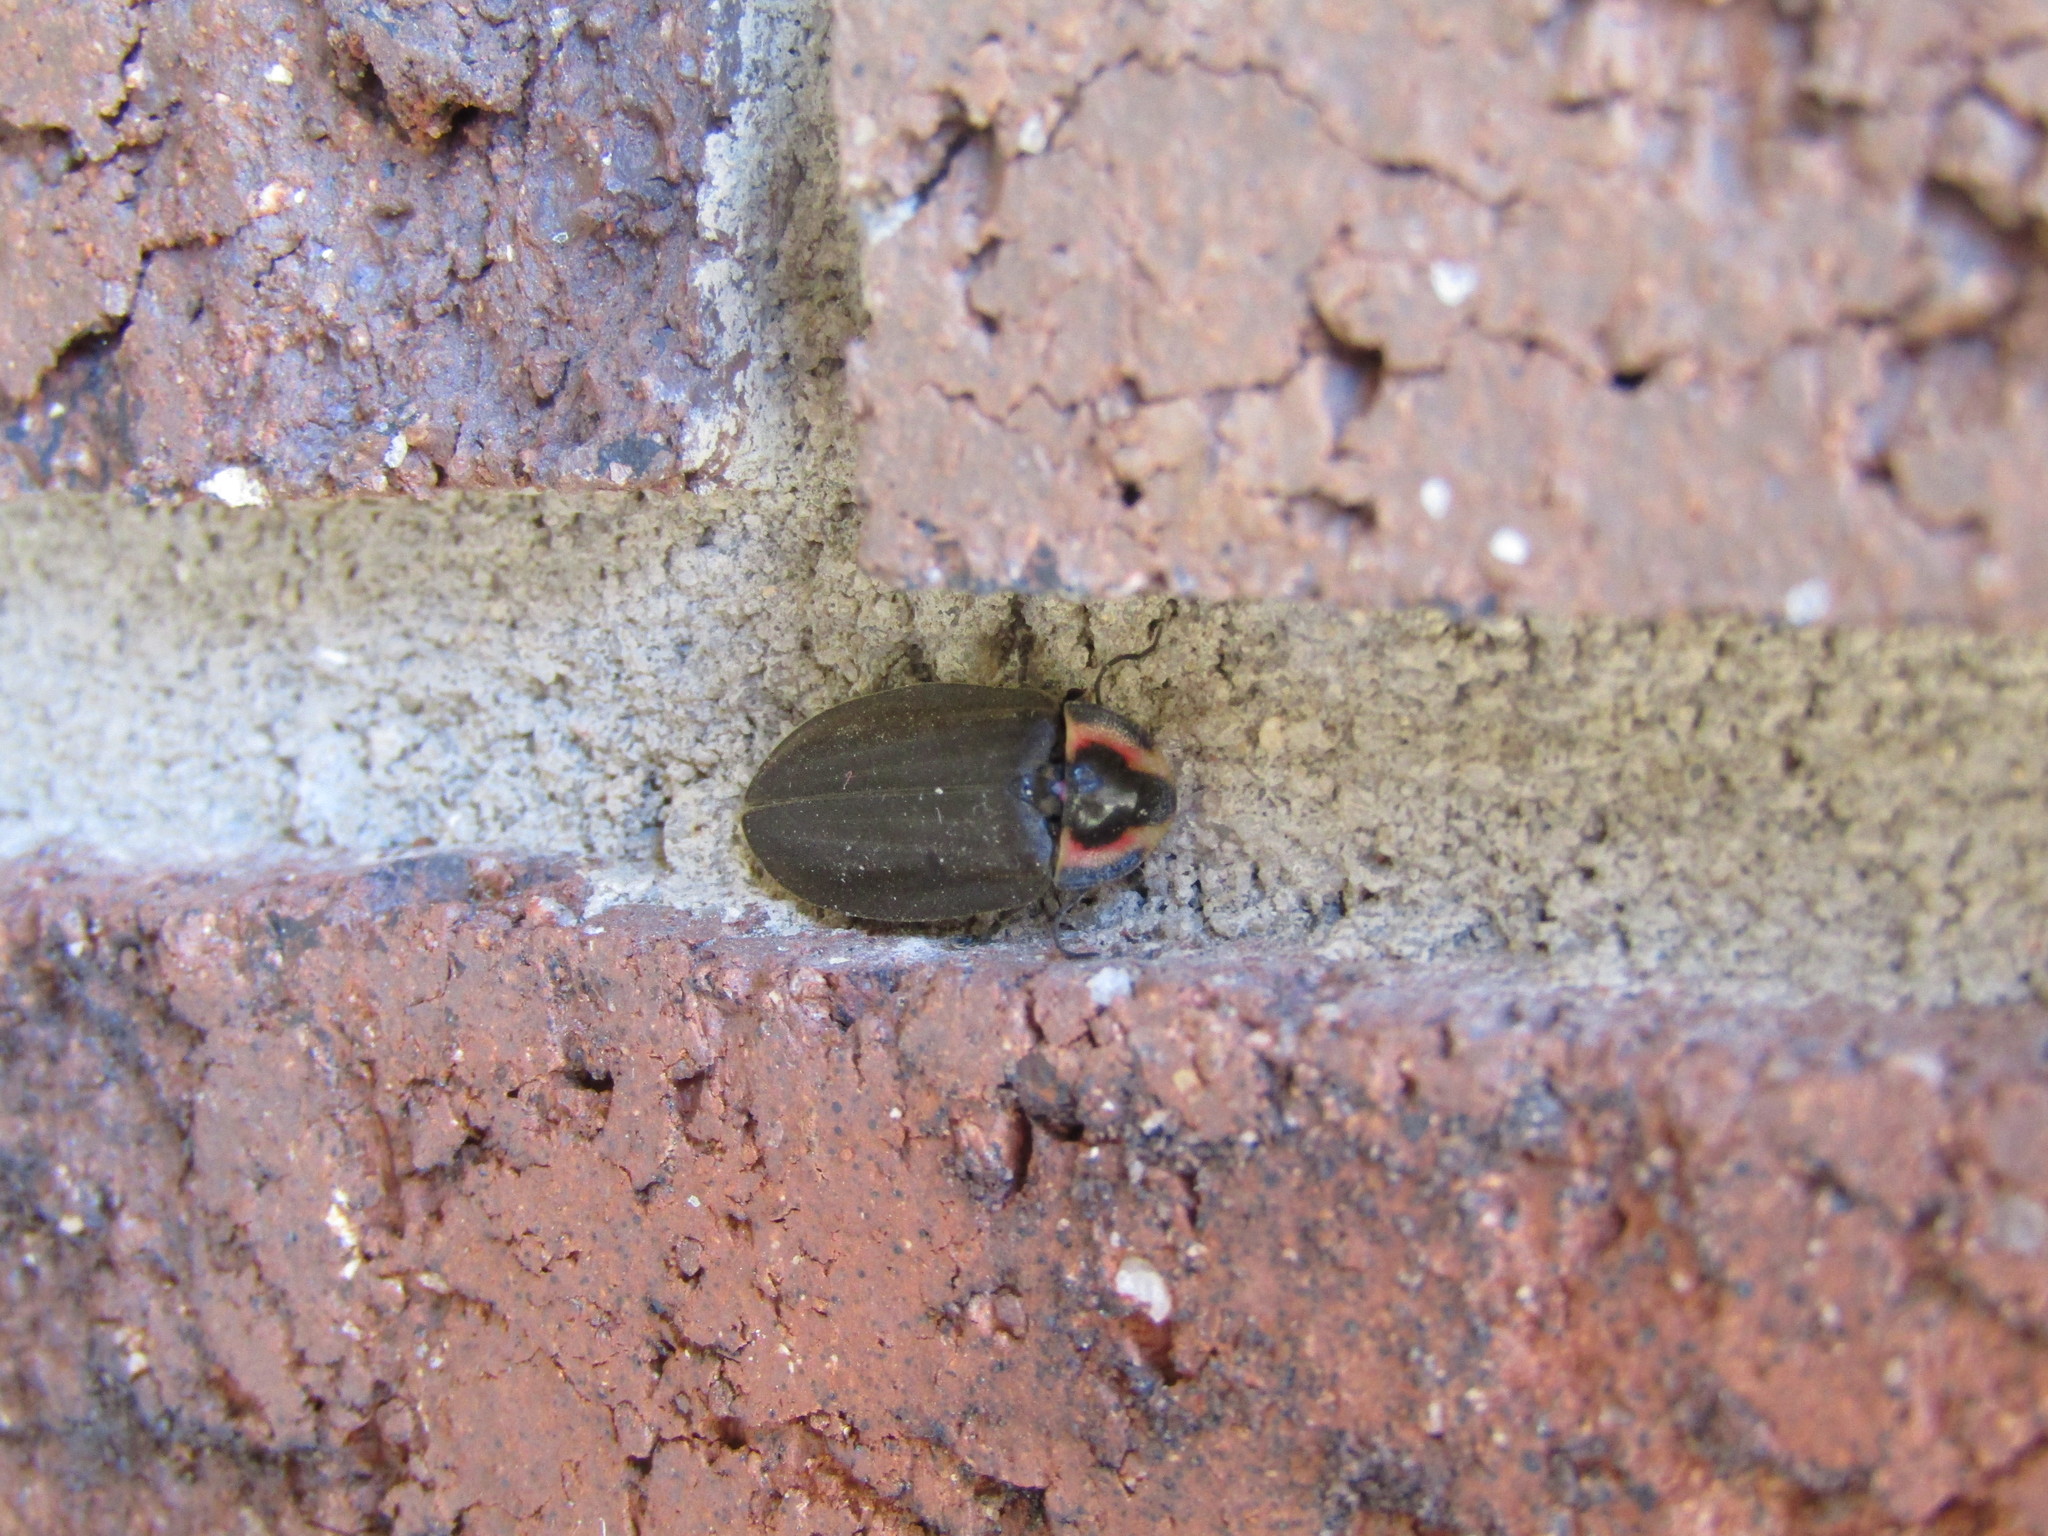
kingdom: Animalia
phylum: Arthropoda
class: Insecta
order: Coleoptera
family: Lampyridae
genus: Photinus
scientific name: Photinus corrusca
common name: Winter firefly
